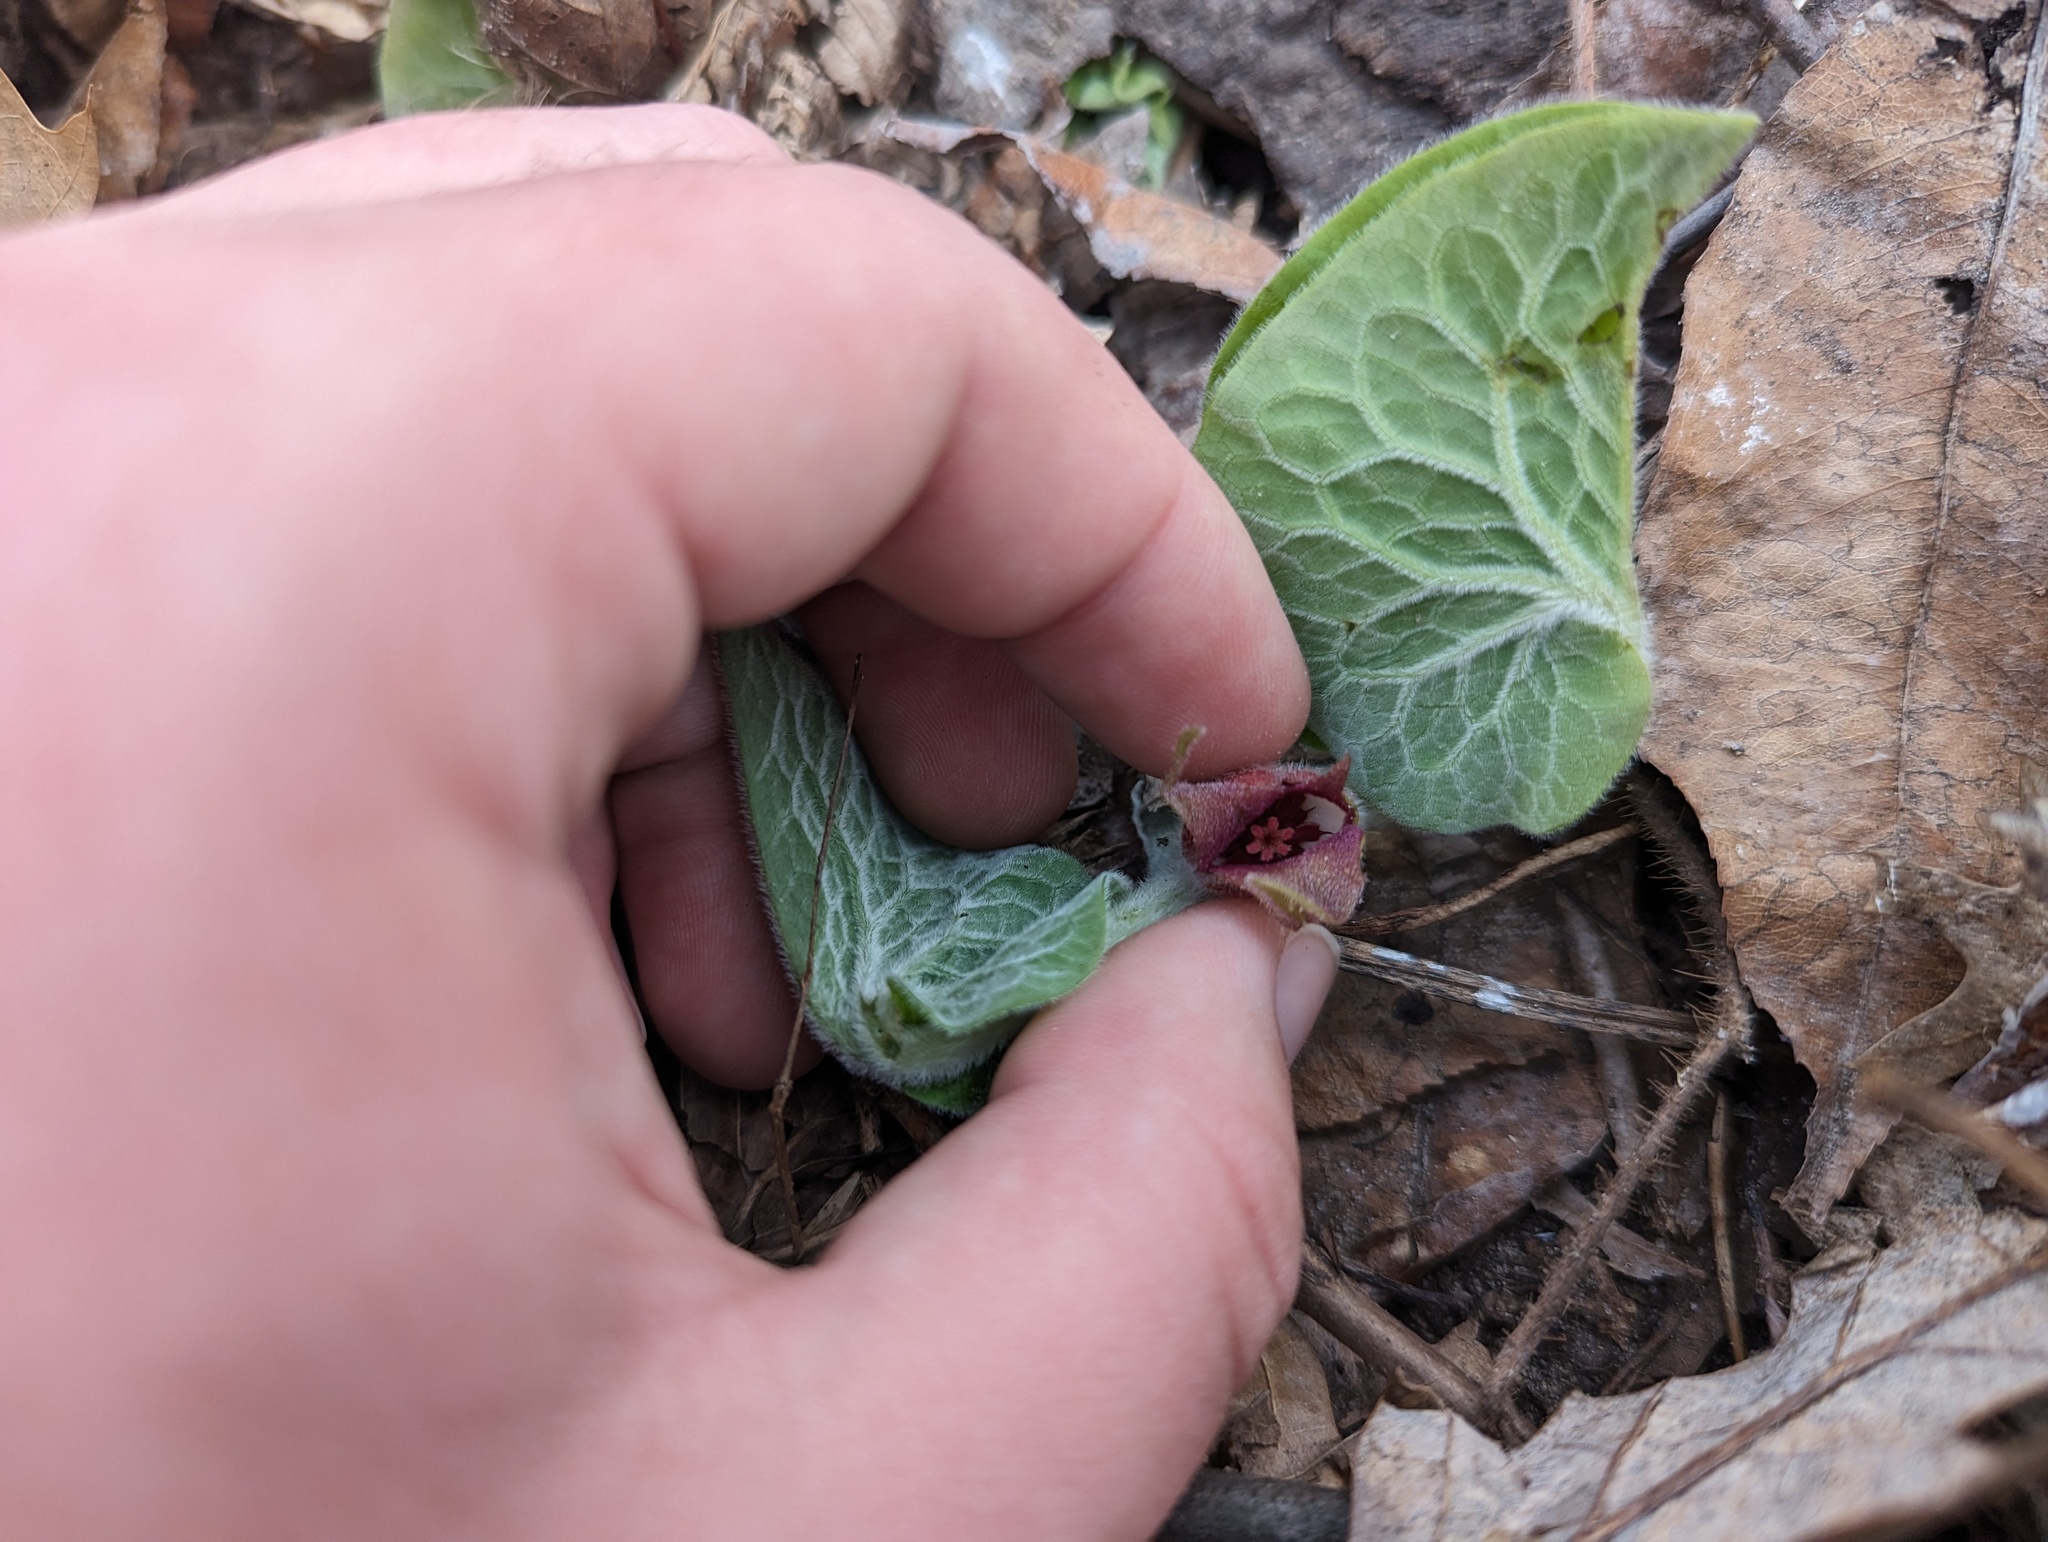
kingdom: Plantae
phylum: Tracheophyta
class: Magnoliopsida
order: Piperales
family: Aristolochiaceae
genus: Asarum
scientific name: Asarum canadense
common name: Wild ginger
